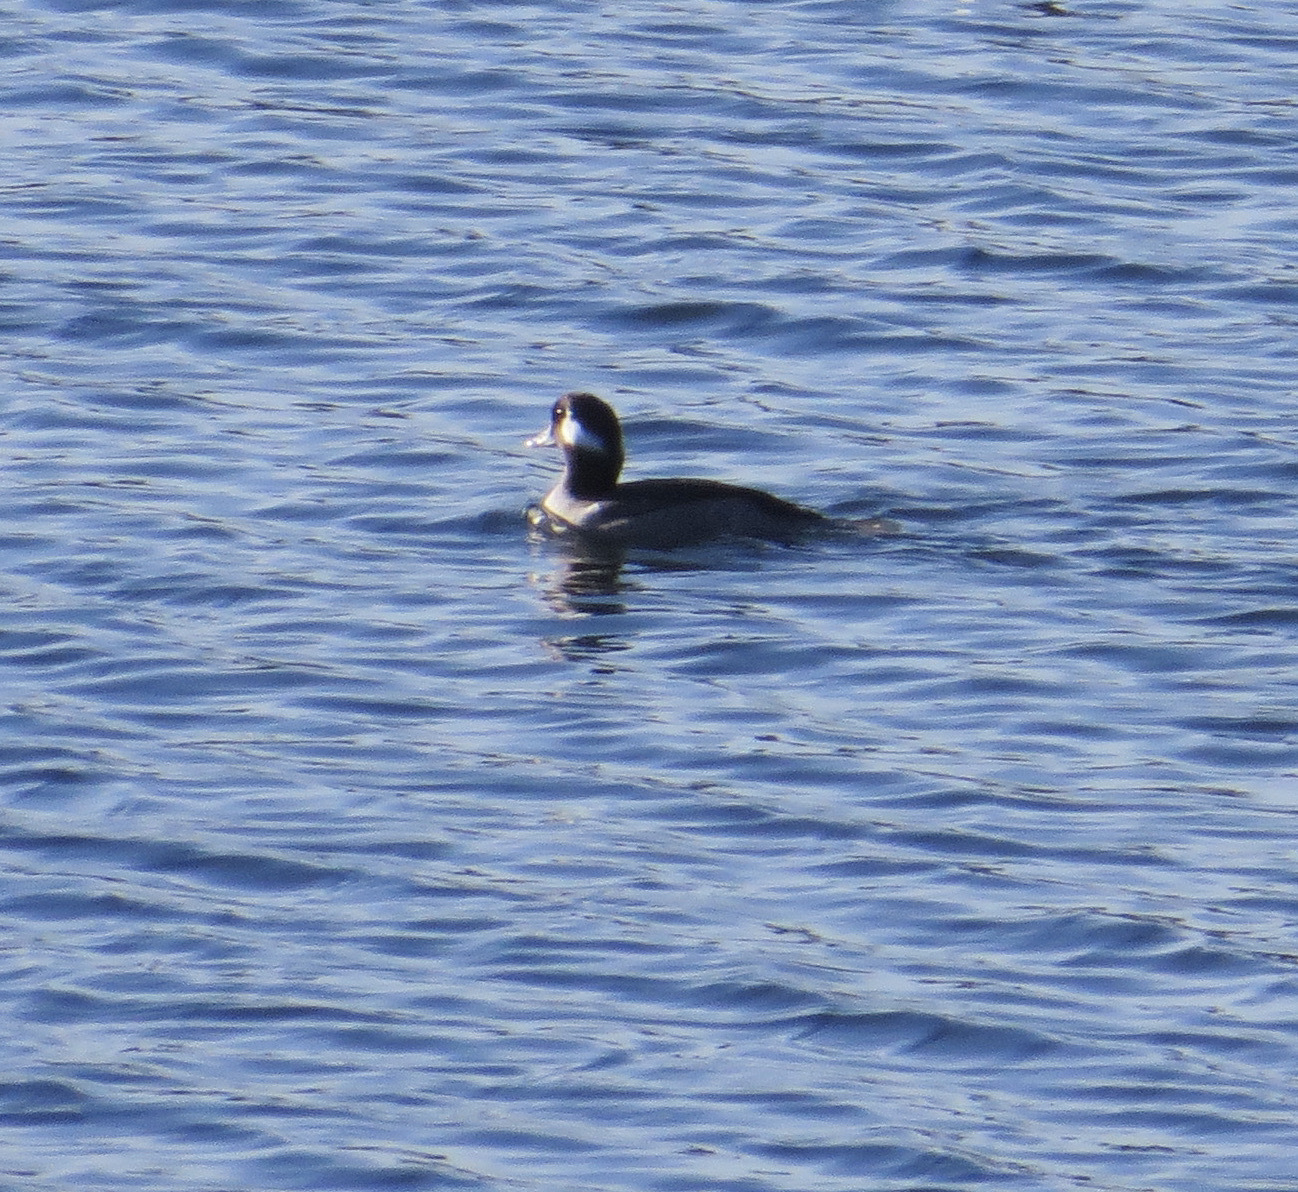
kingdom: Animalia
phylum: Chordata
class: Aves
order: Anseriformes
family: Anatidae
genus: Bucephala
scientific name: Bucephala albeola
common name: Bufflehead
